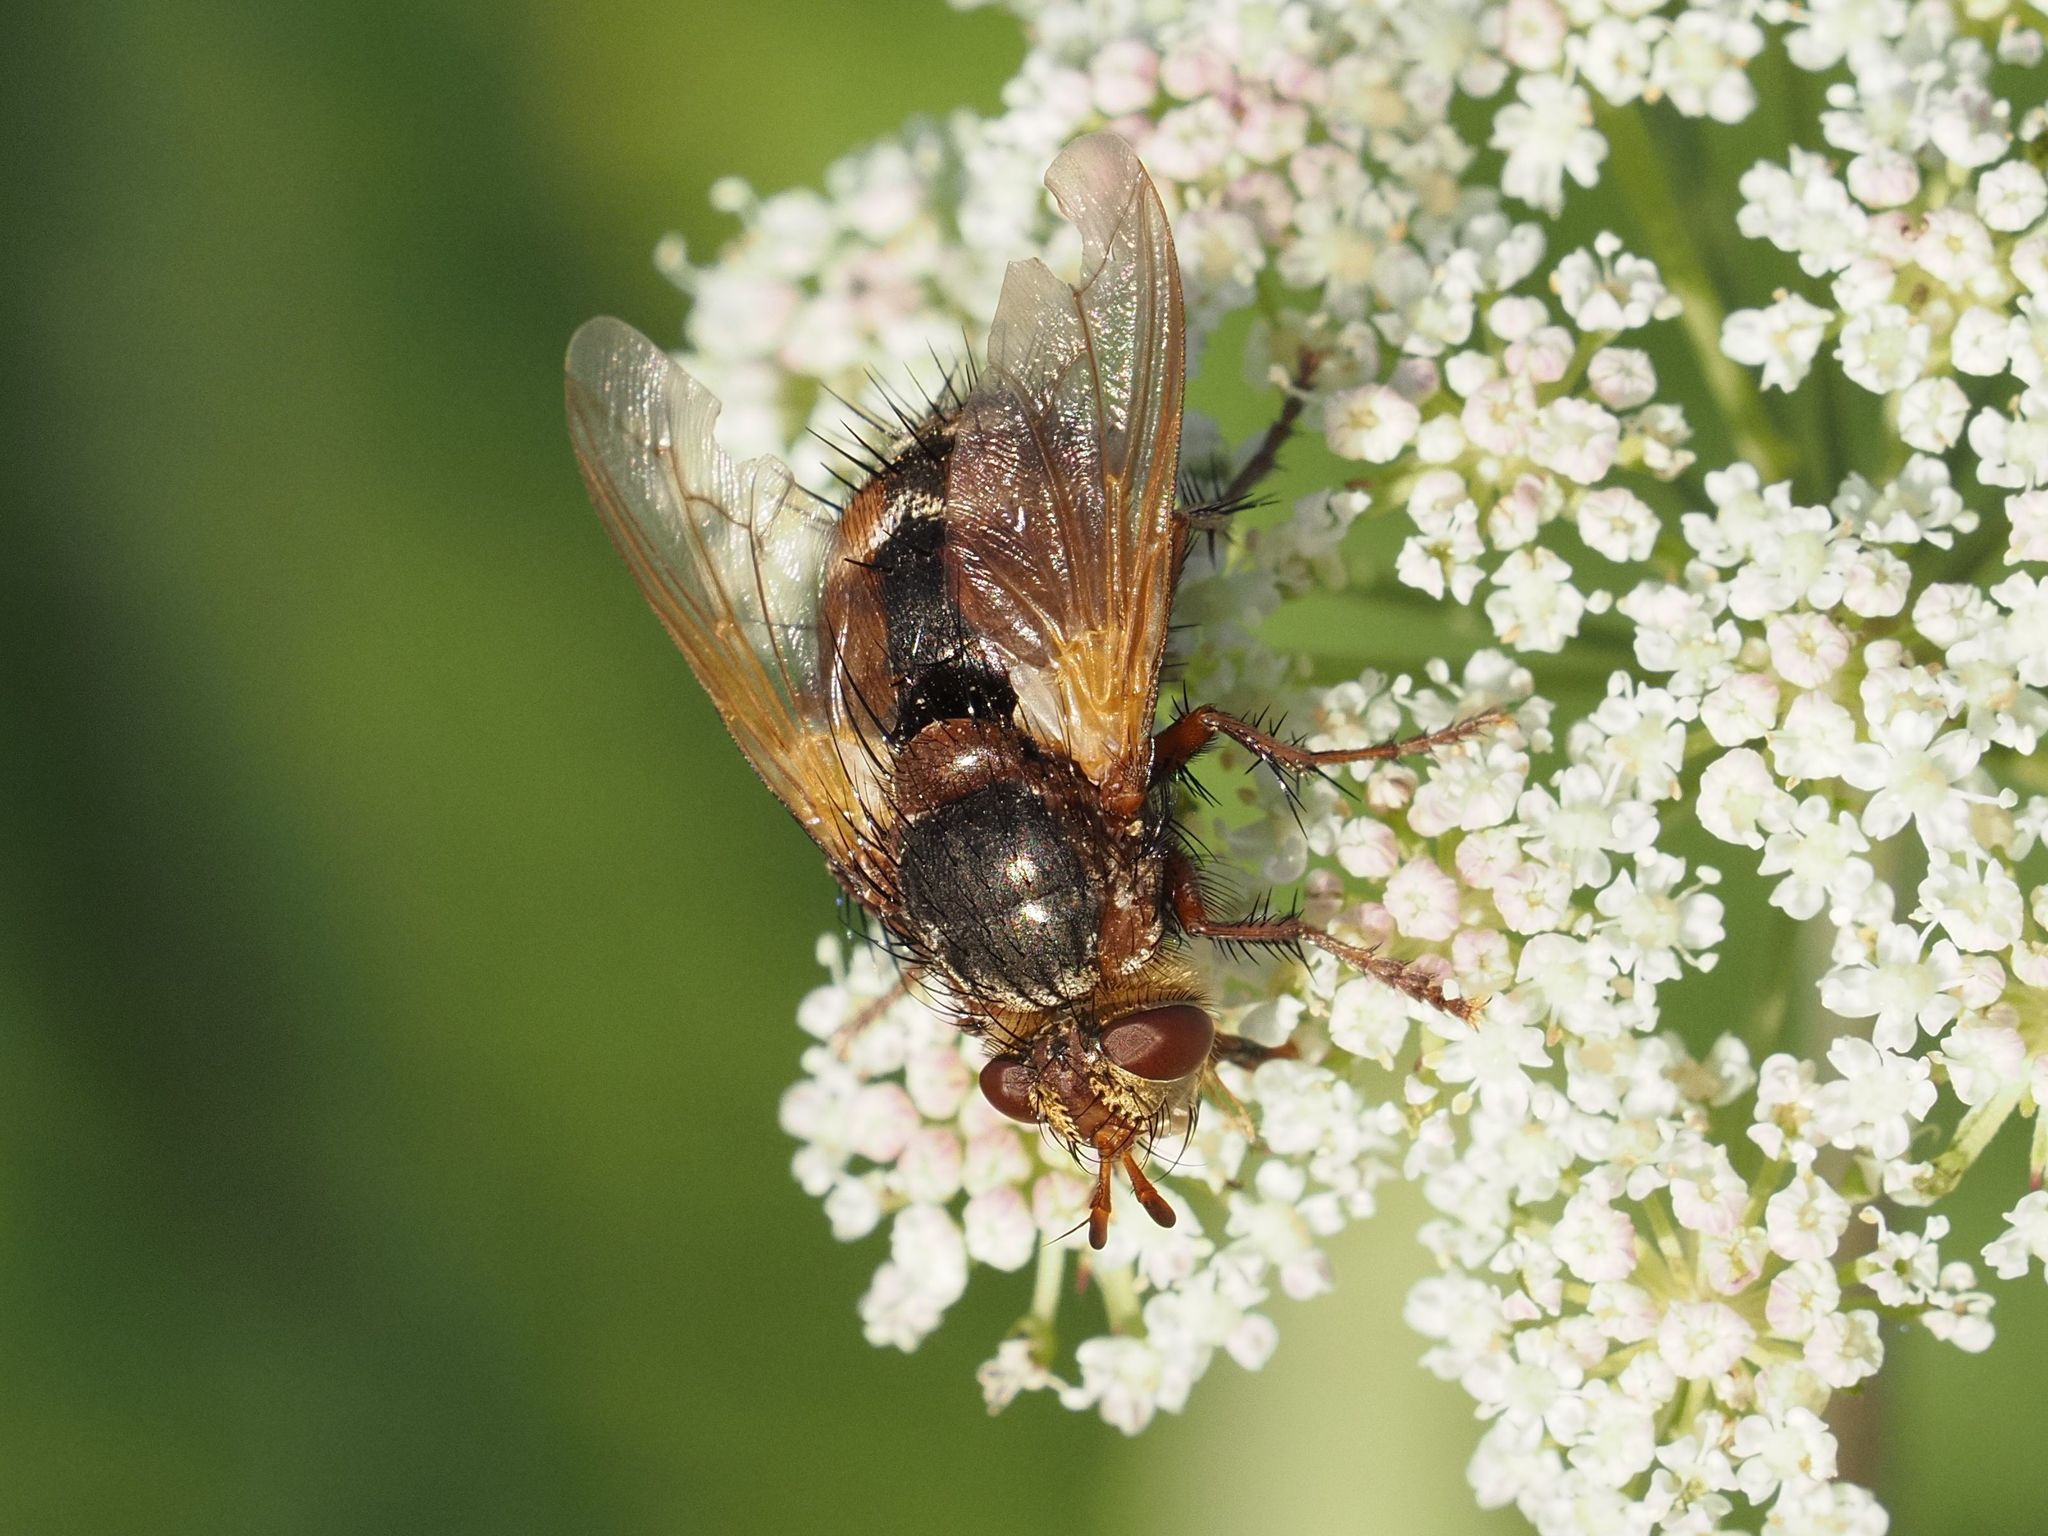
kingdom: Animalia
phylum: Arthropoda
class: Insecta
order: Diptera
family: Tachinidae
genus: Tachina
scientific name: Tachina fera
